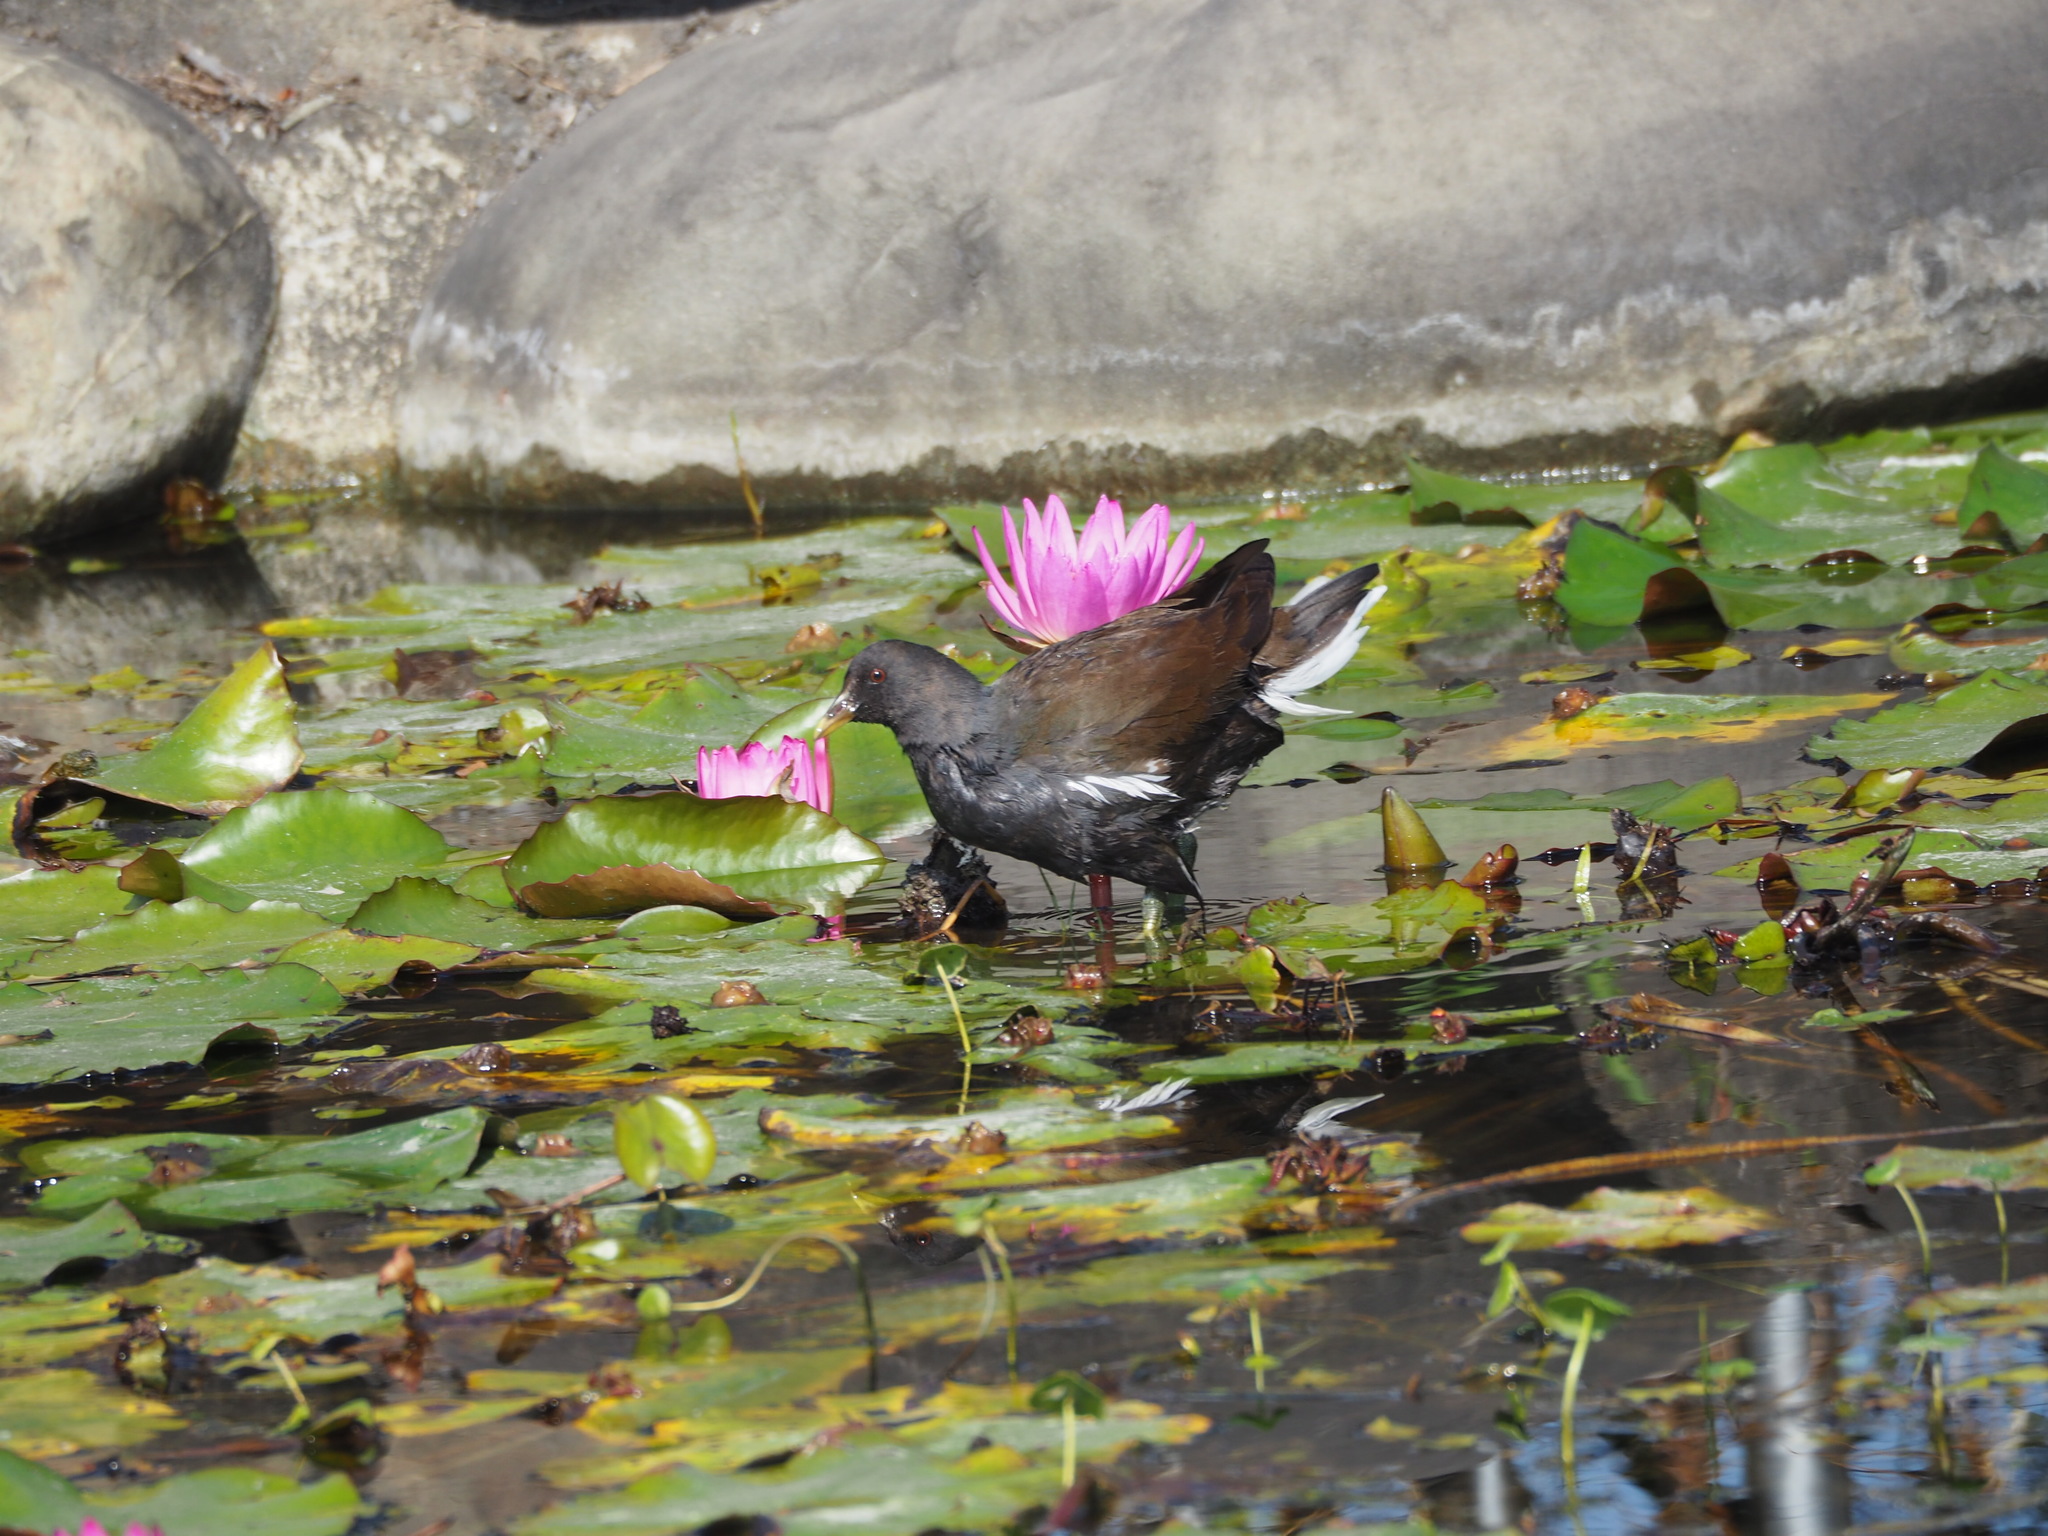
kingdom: Animalia
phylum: Chordata
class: Aves
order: Gruiformes
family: Rallidae
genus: Gallinula
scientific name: Gallinula chloropus
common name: Common moorhen
